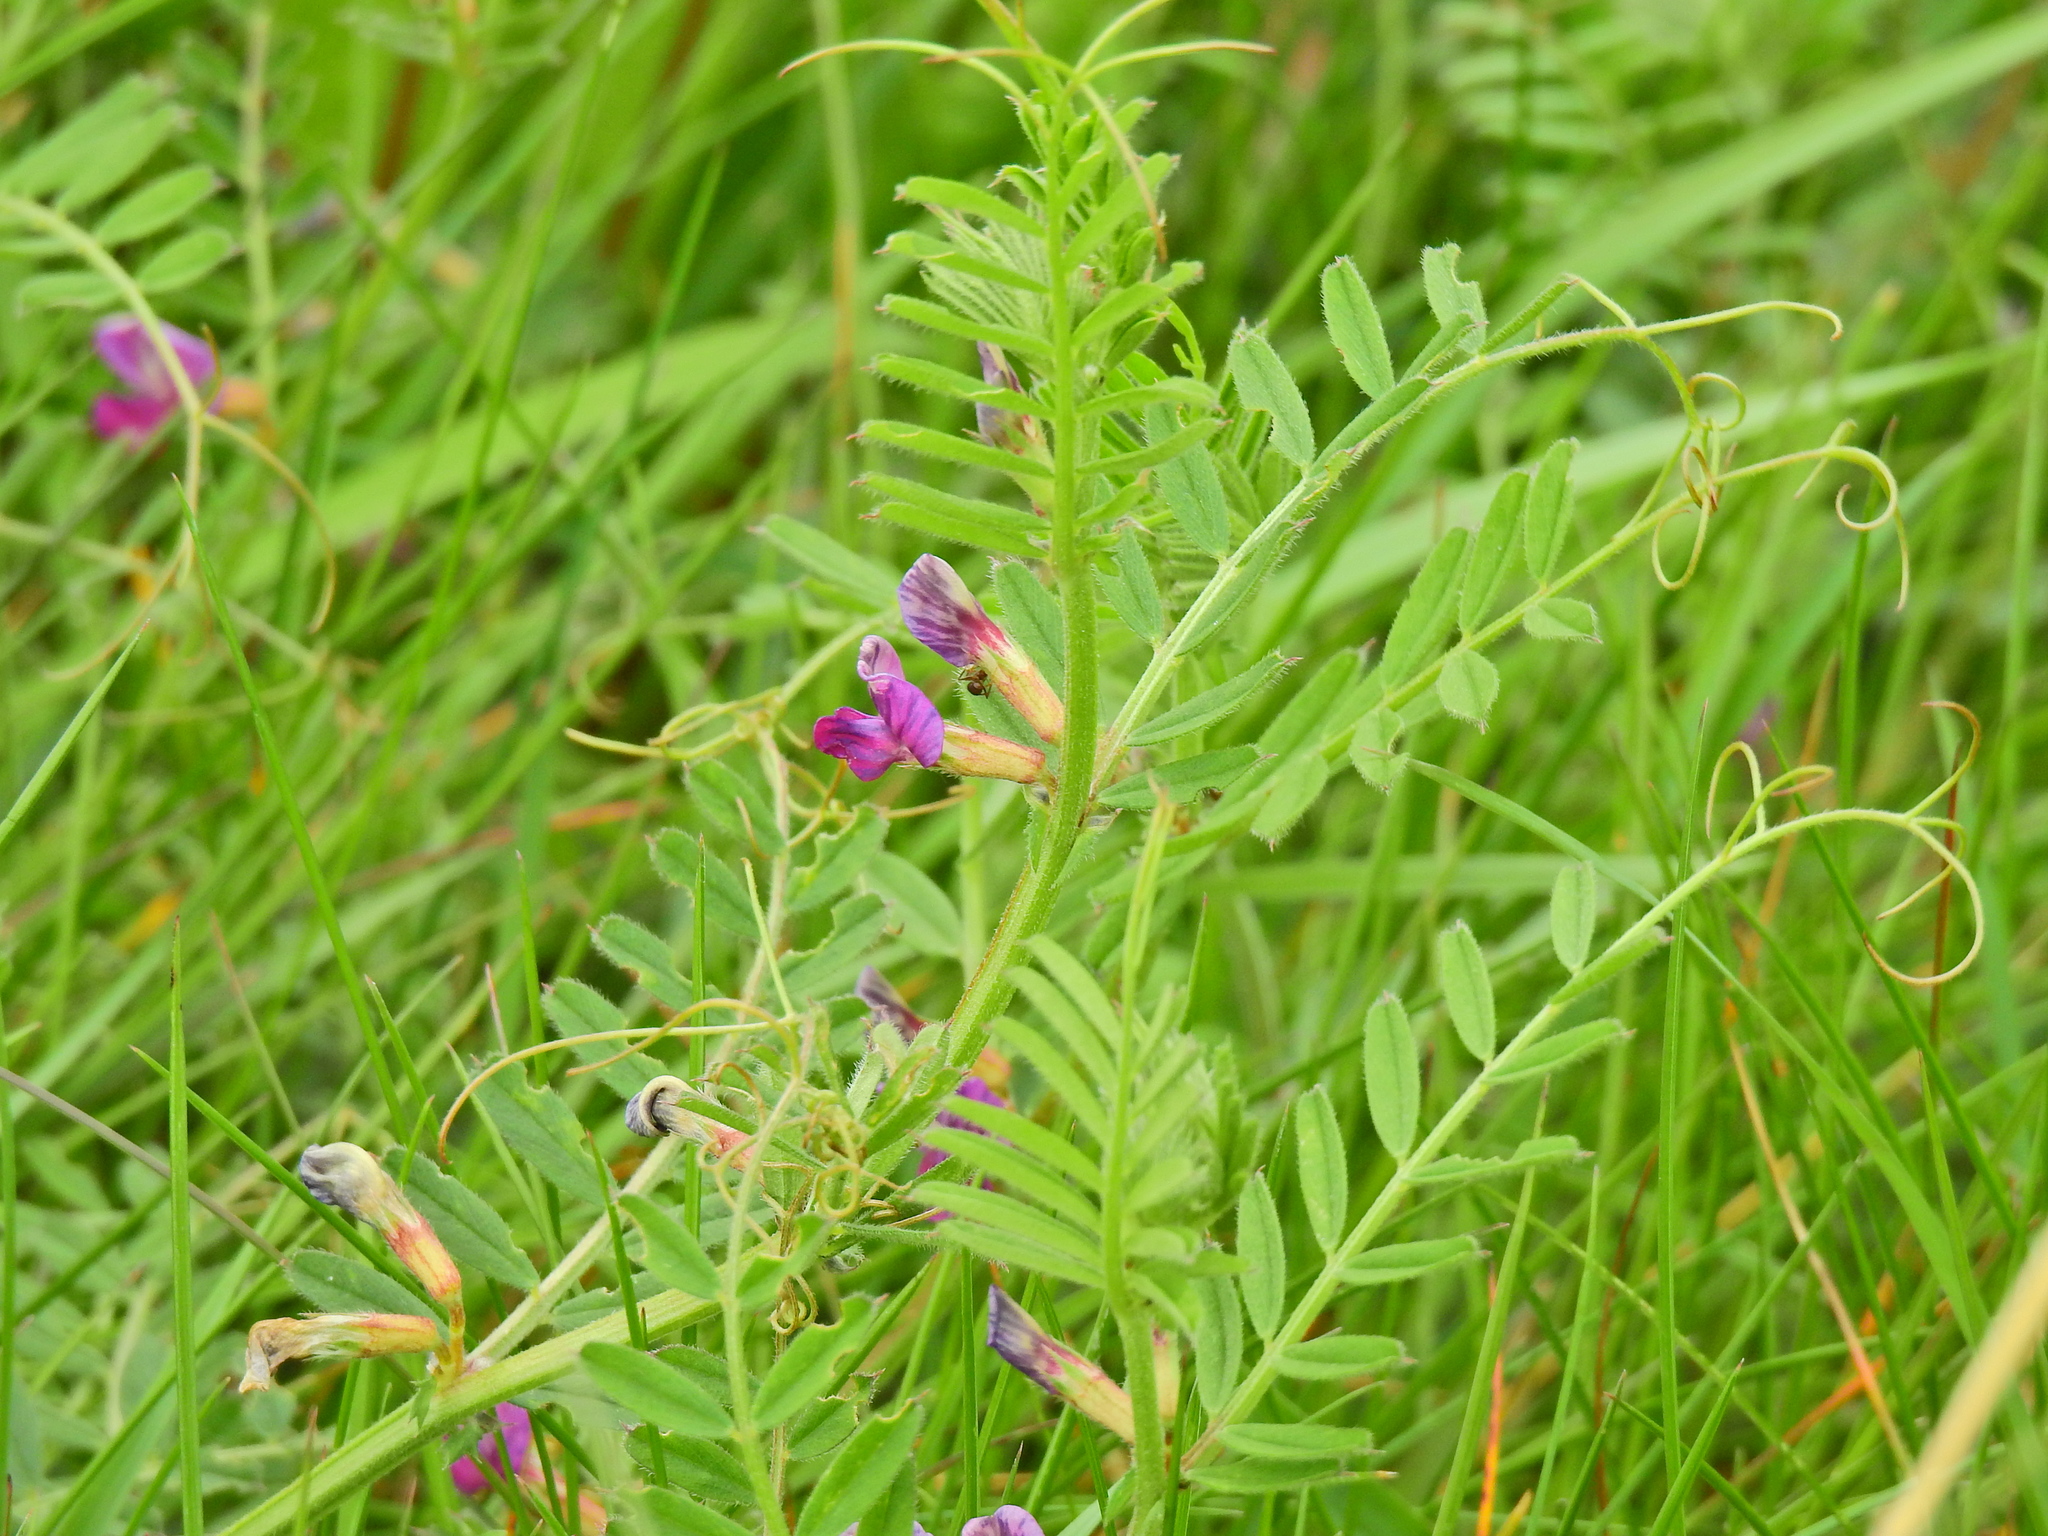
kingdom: Plantae
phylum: Tracheophyta
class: Magnoliopsida
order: Fabales
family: Fabaceae
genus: Vicia
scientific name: Vicia sativa
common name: Garden vetch
